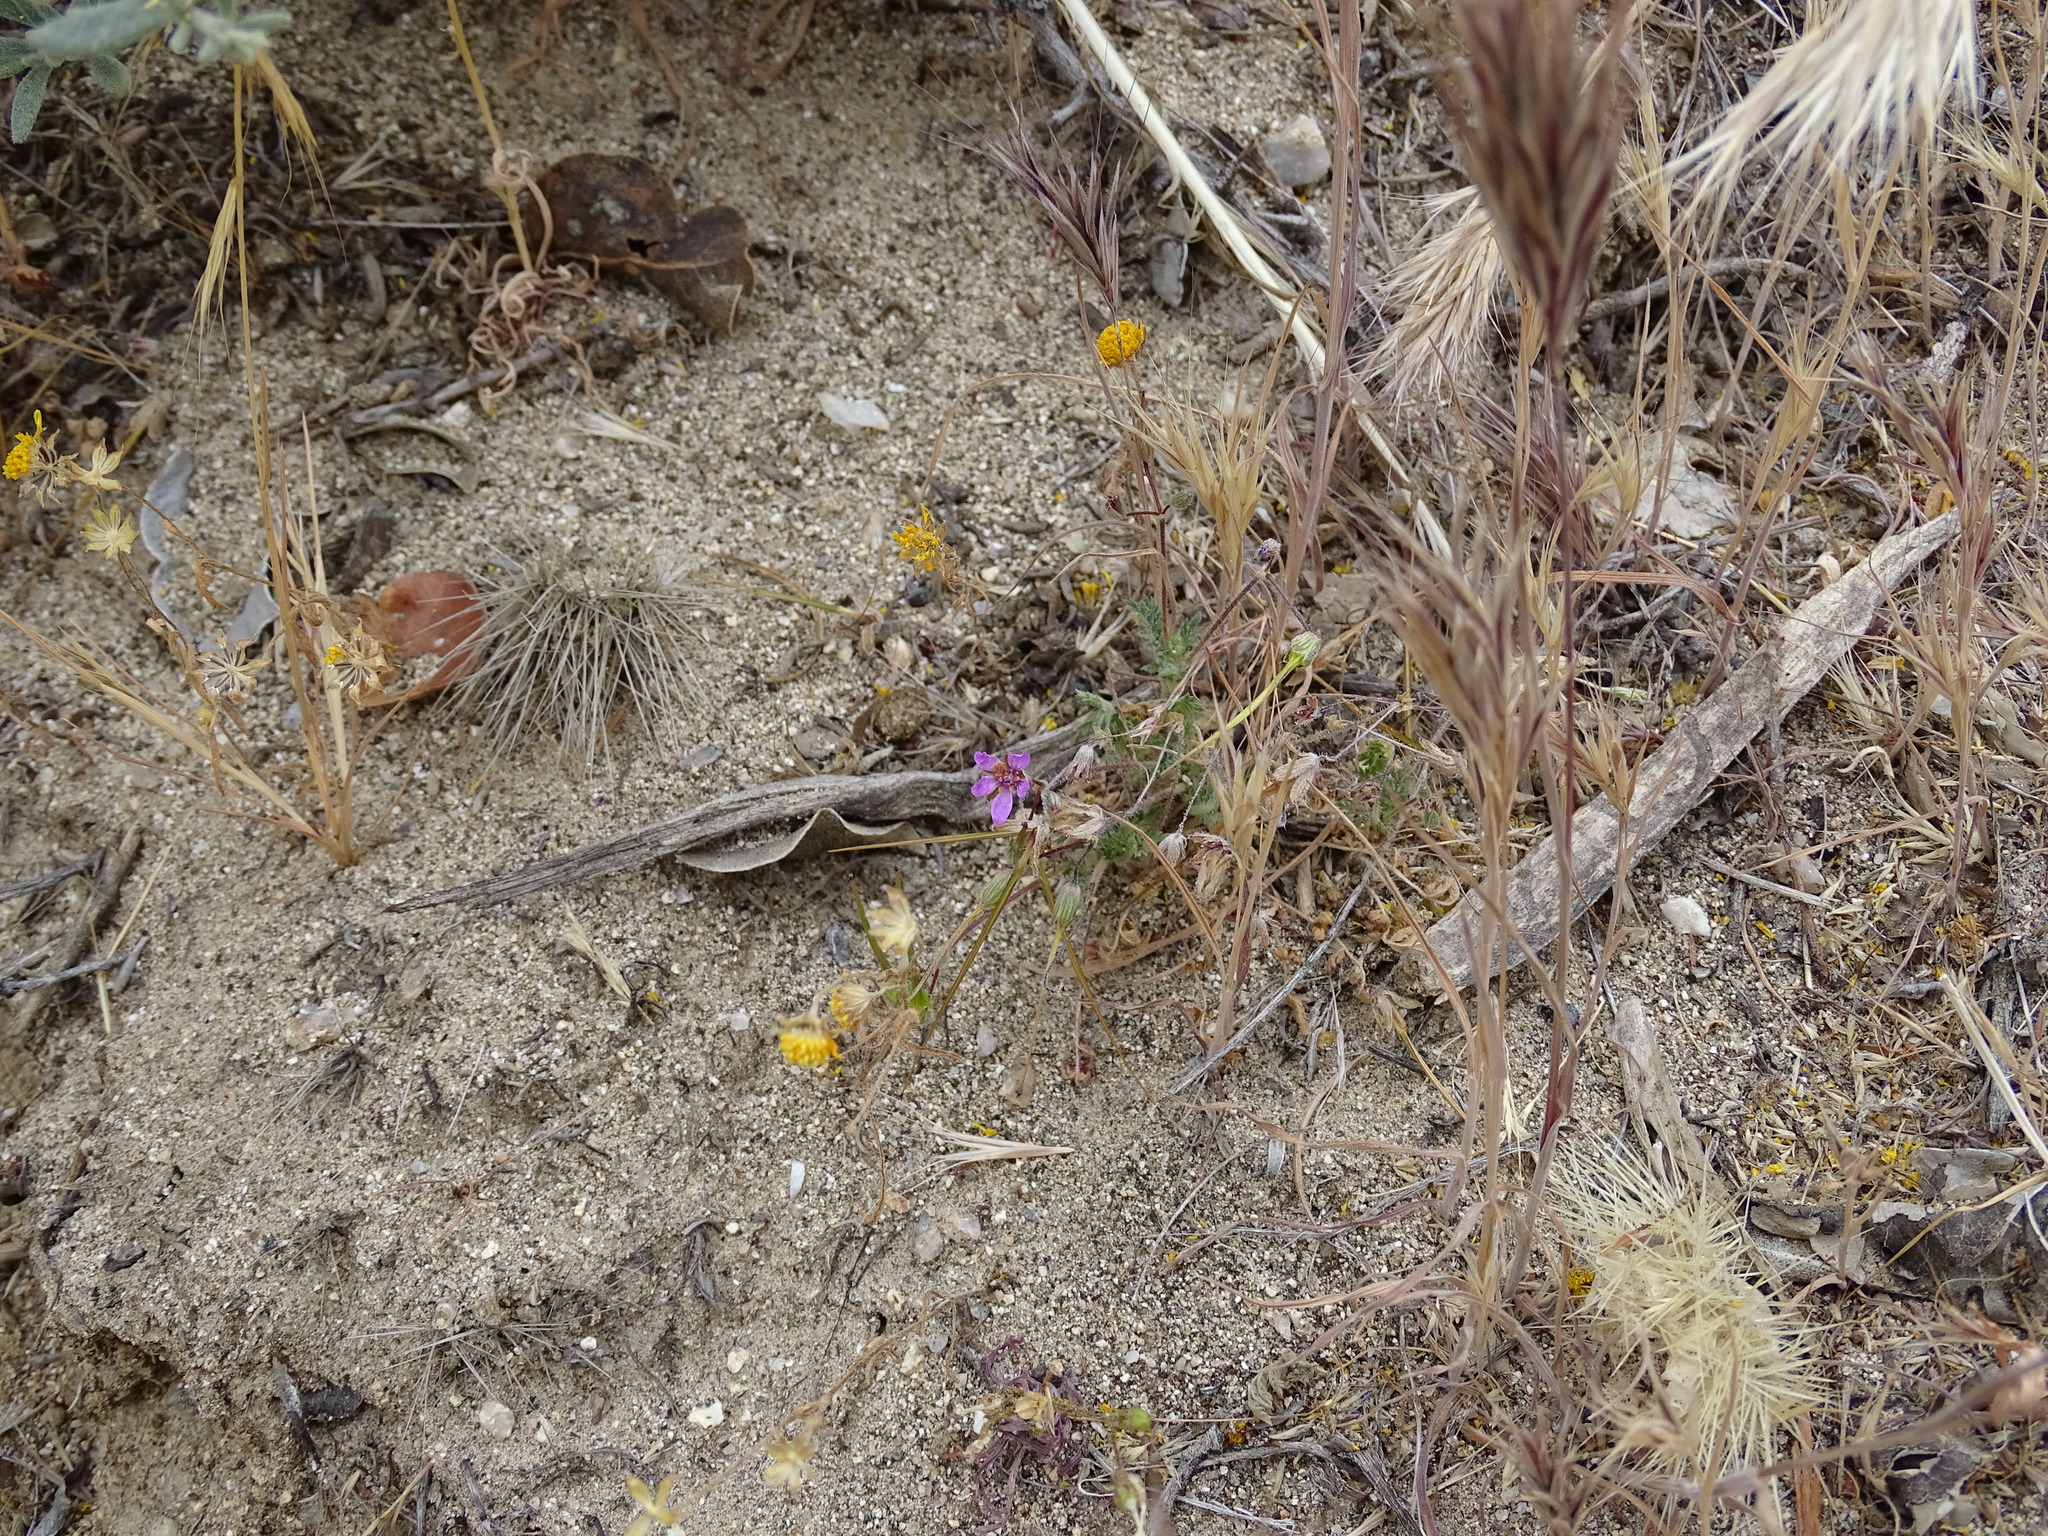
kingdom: Plantae
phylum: Tracheophyta
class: Magnoliopsida
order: Geraniales
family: Geraniaceae
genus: Erodium
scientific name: Erodium cicutarium
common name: Common stork's-bill
